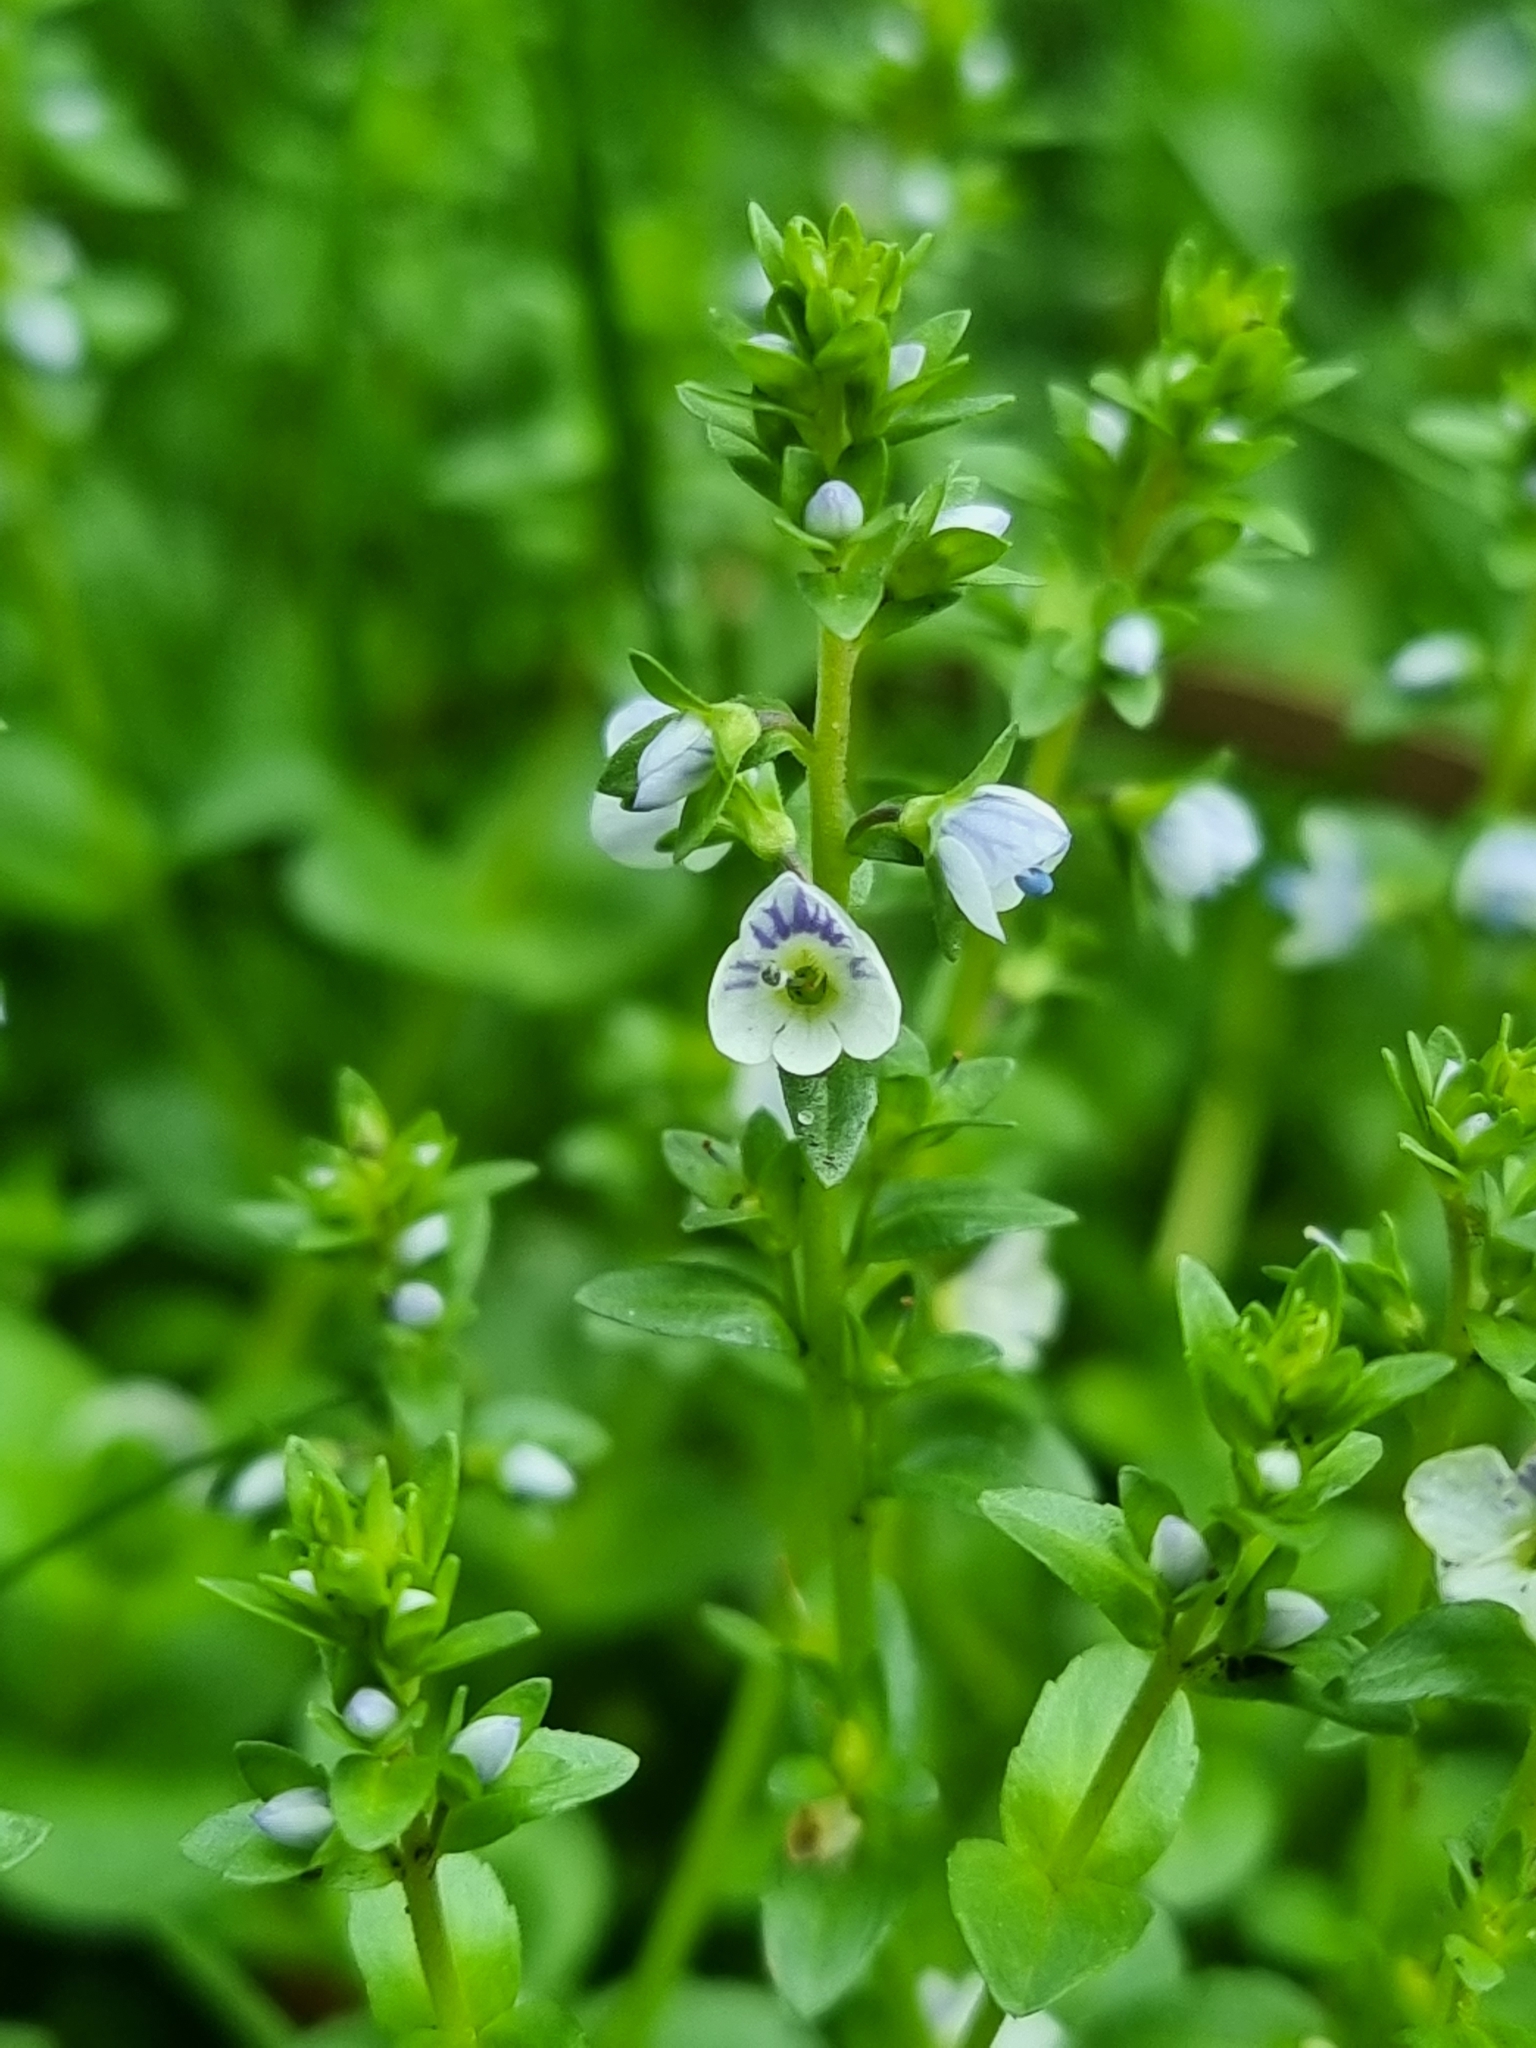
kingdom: Plantae
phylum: Tracheophyta
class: Magnoliopsida
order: Lamiales
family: Plantaginaceae
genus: Veronica
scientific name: Veronica serpyllifolia
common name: Thyme-leaved speedwell
